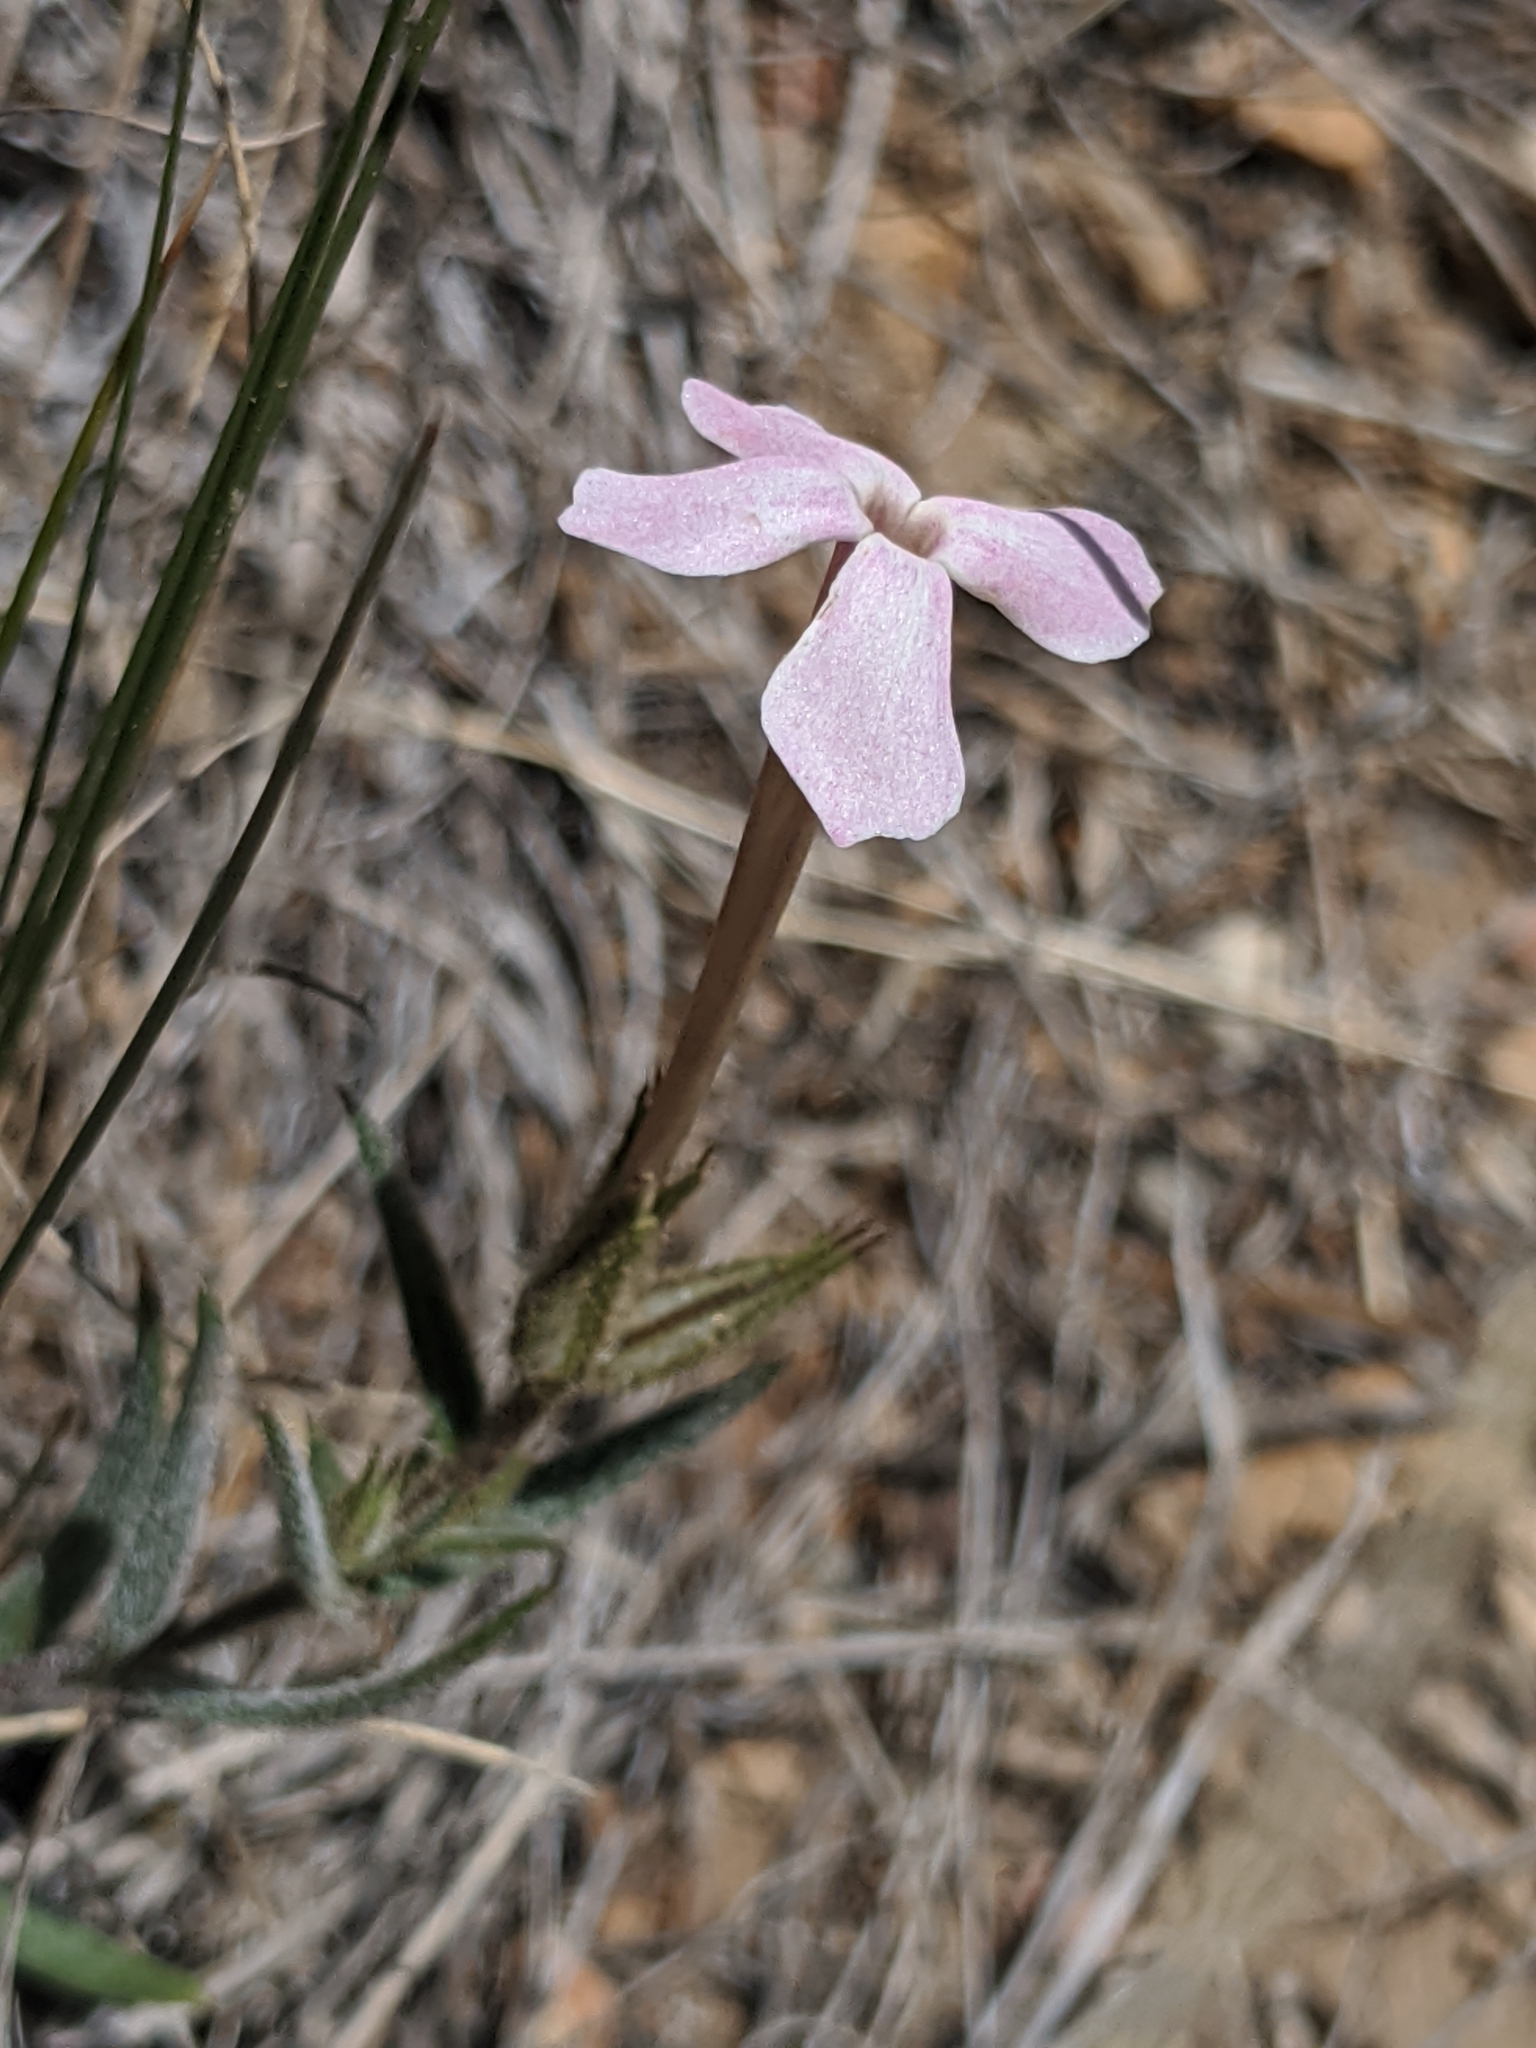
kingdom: Plantae
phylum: Tracheophyta
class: Magnoliopsida
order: Ericales
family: Polemoniaceae
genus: Phlox
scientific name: Phlox longifolia
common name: Longleaf phlox
